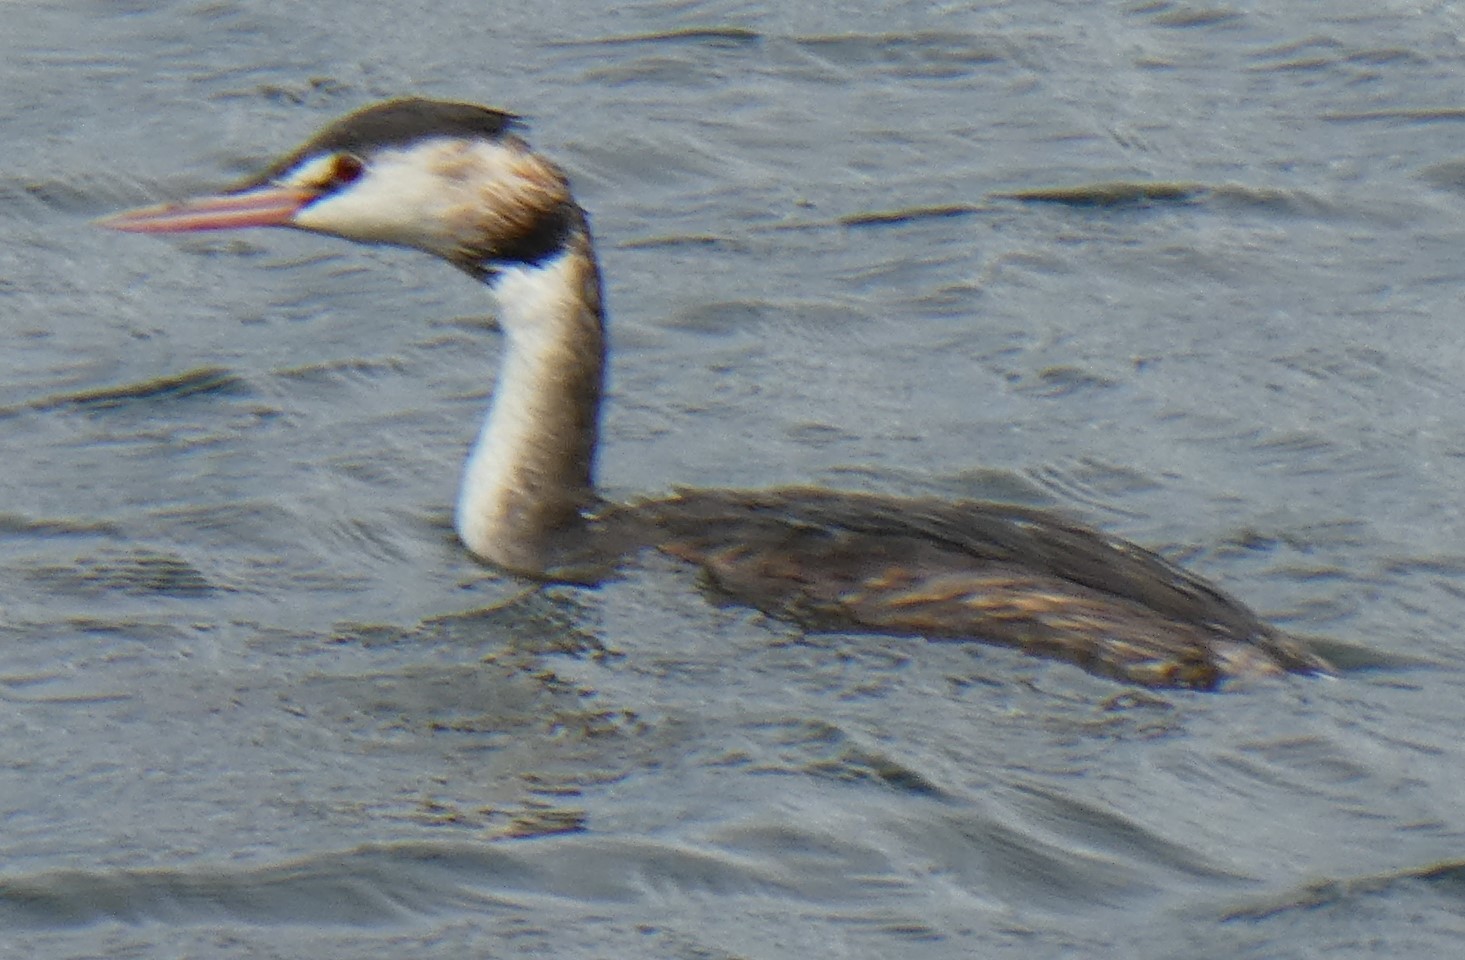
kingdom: Animalia
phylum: Chordata
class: Aves
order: Podicipediformes
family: Podicipedidae
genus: Podiceps
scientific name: Podiceps cristatus
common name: Great crested grebe
